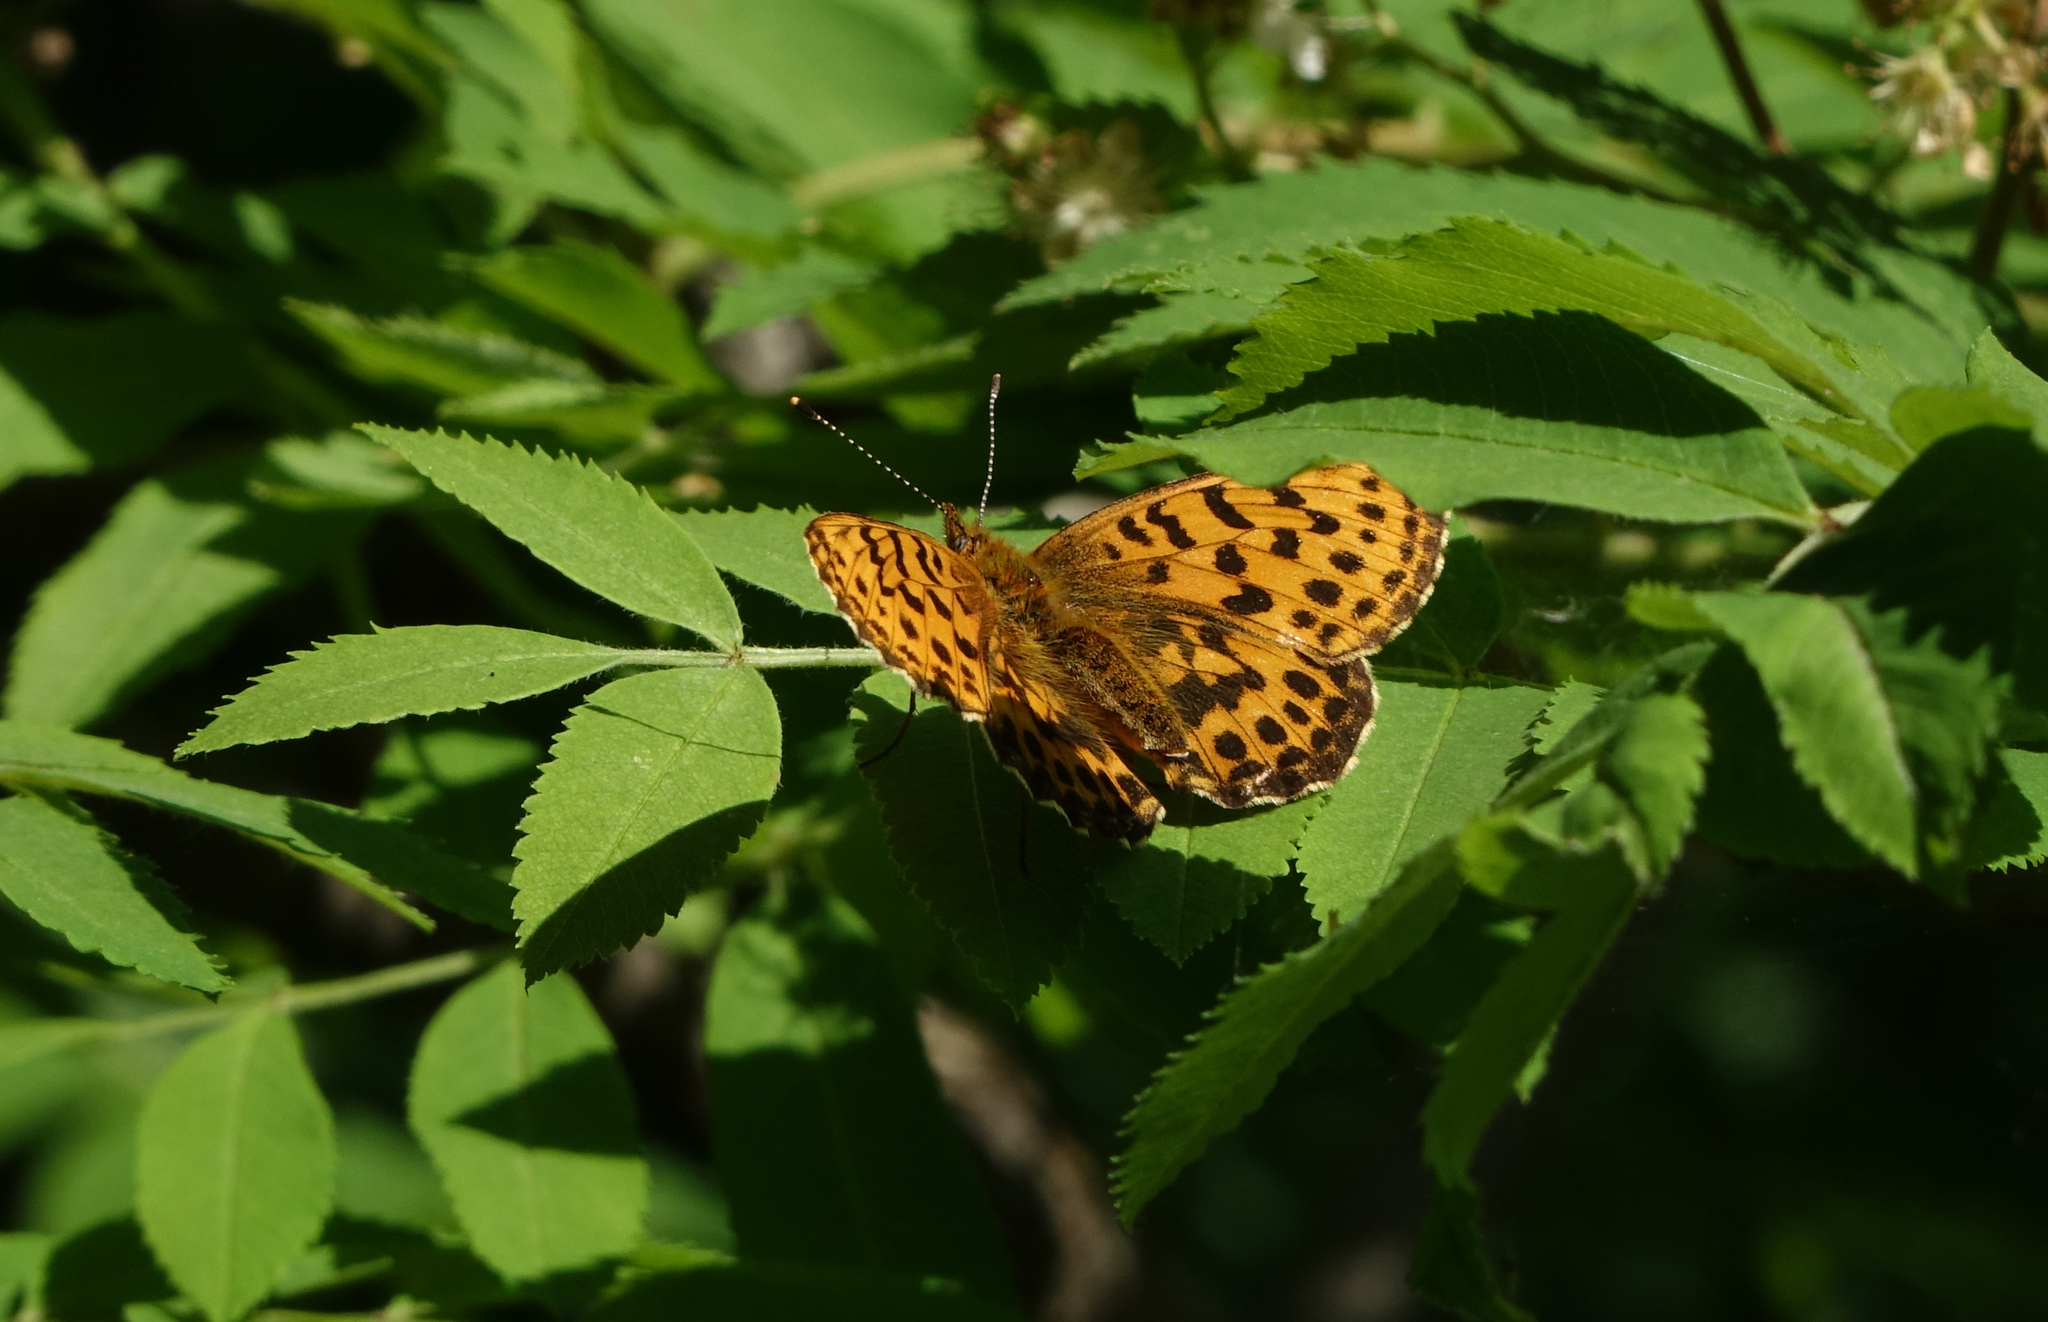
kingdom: Animalia
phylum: Arthropoda
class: Insecta
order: Lepidoptera
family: Nymphalidae
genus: Boloria
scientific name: Boloria thore
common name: Thor's fritillary
